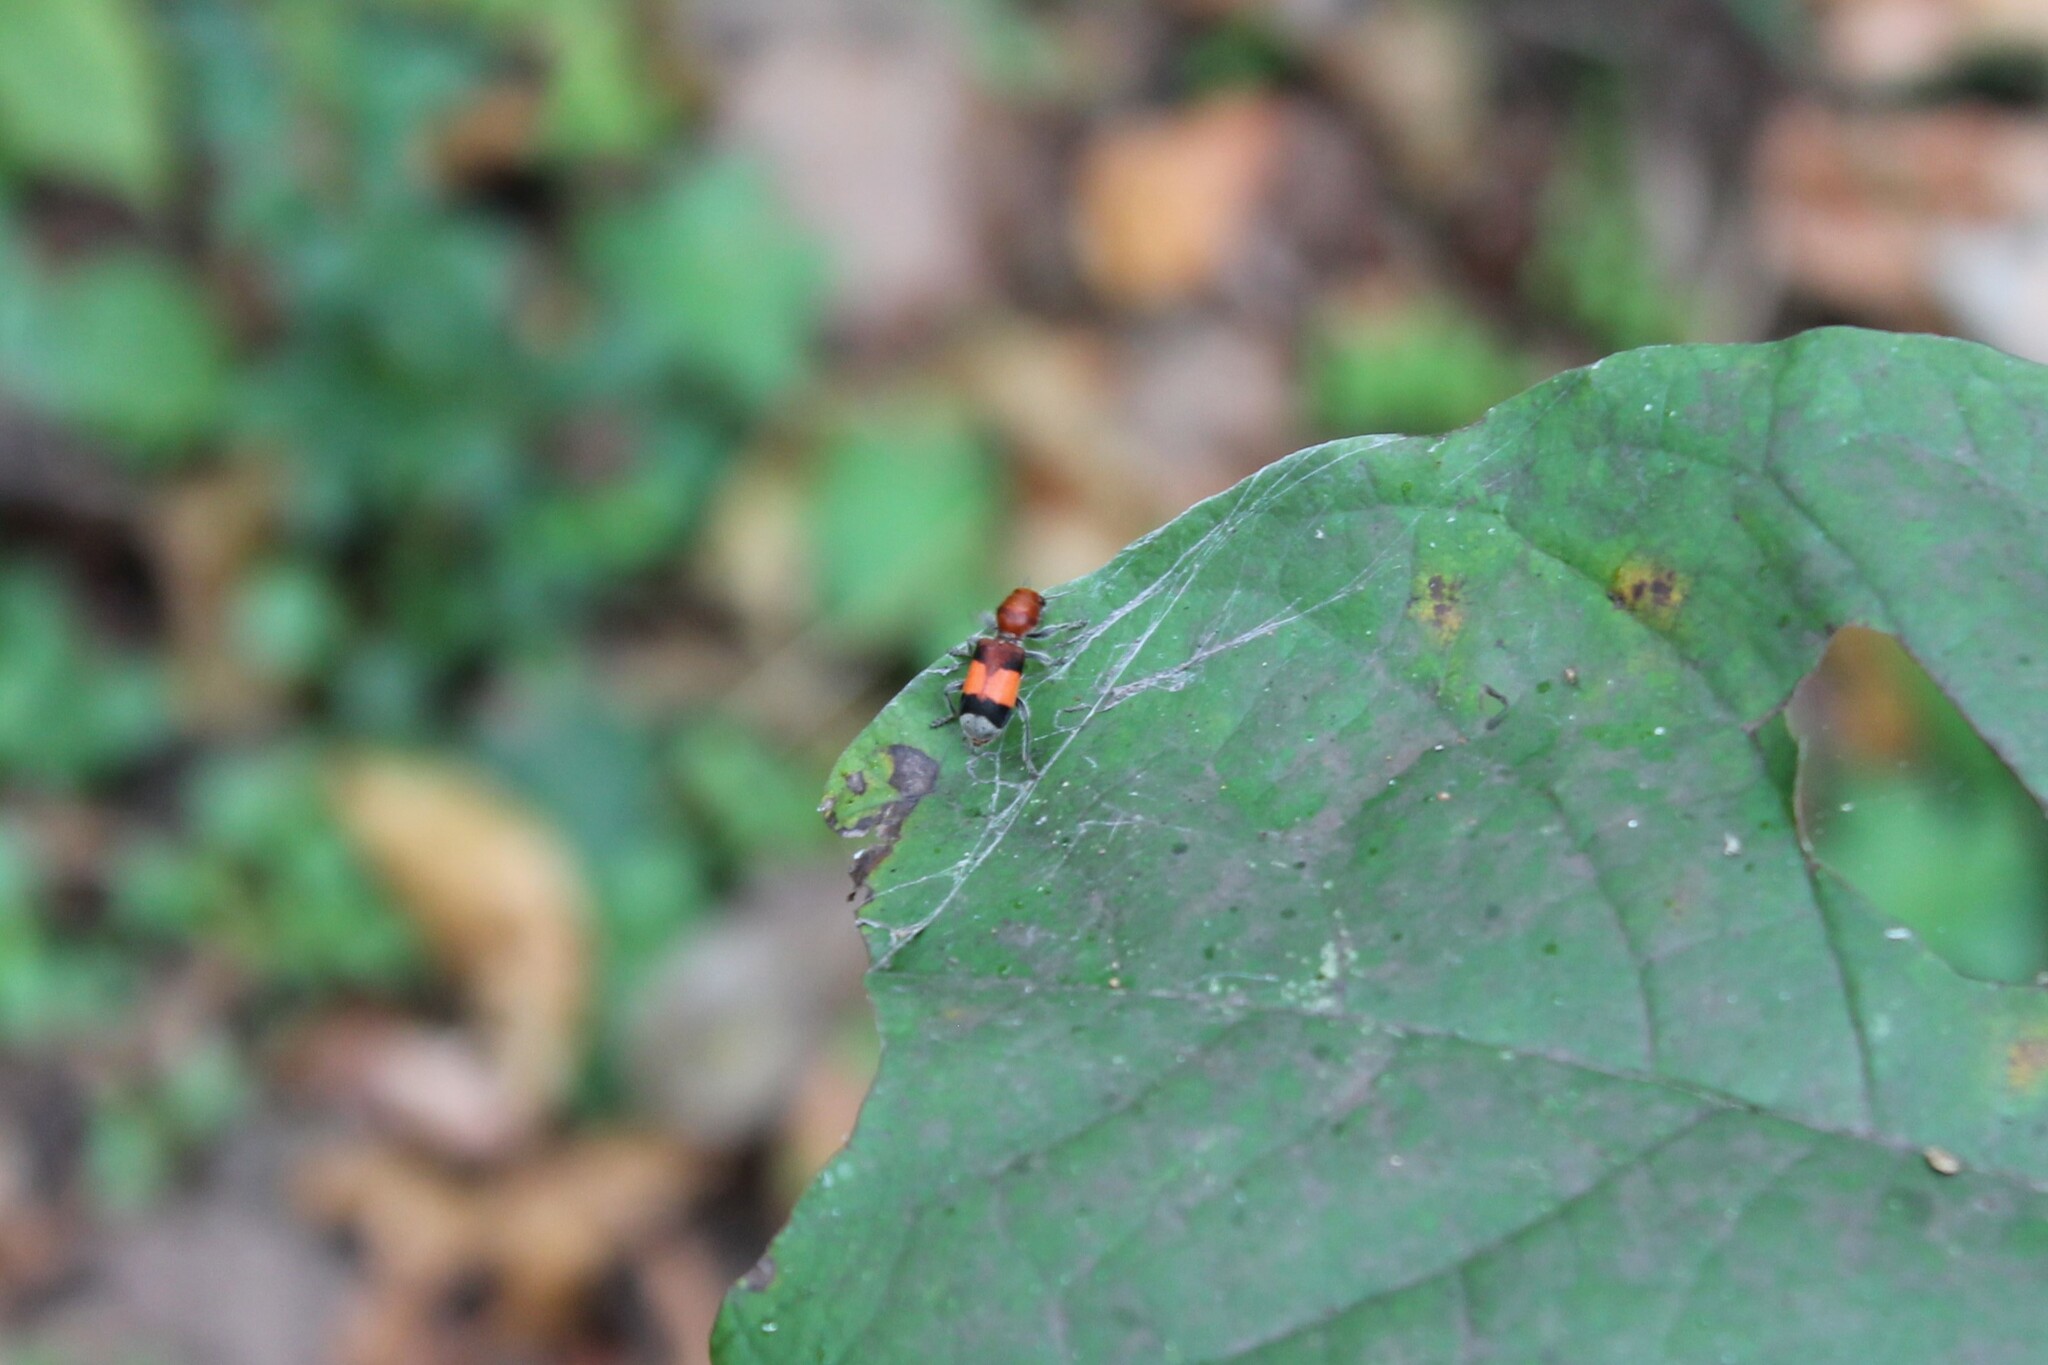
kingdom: Animalia
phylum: Arthropoda
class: Insecta
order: Coleoptera
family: Cleridae
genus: Enoclerus
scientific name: Enoclerus ichneumoneus
